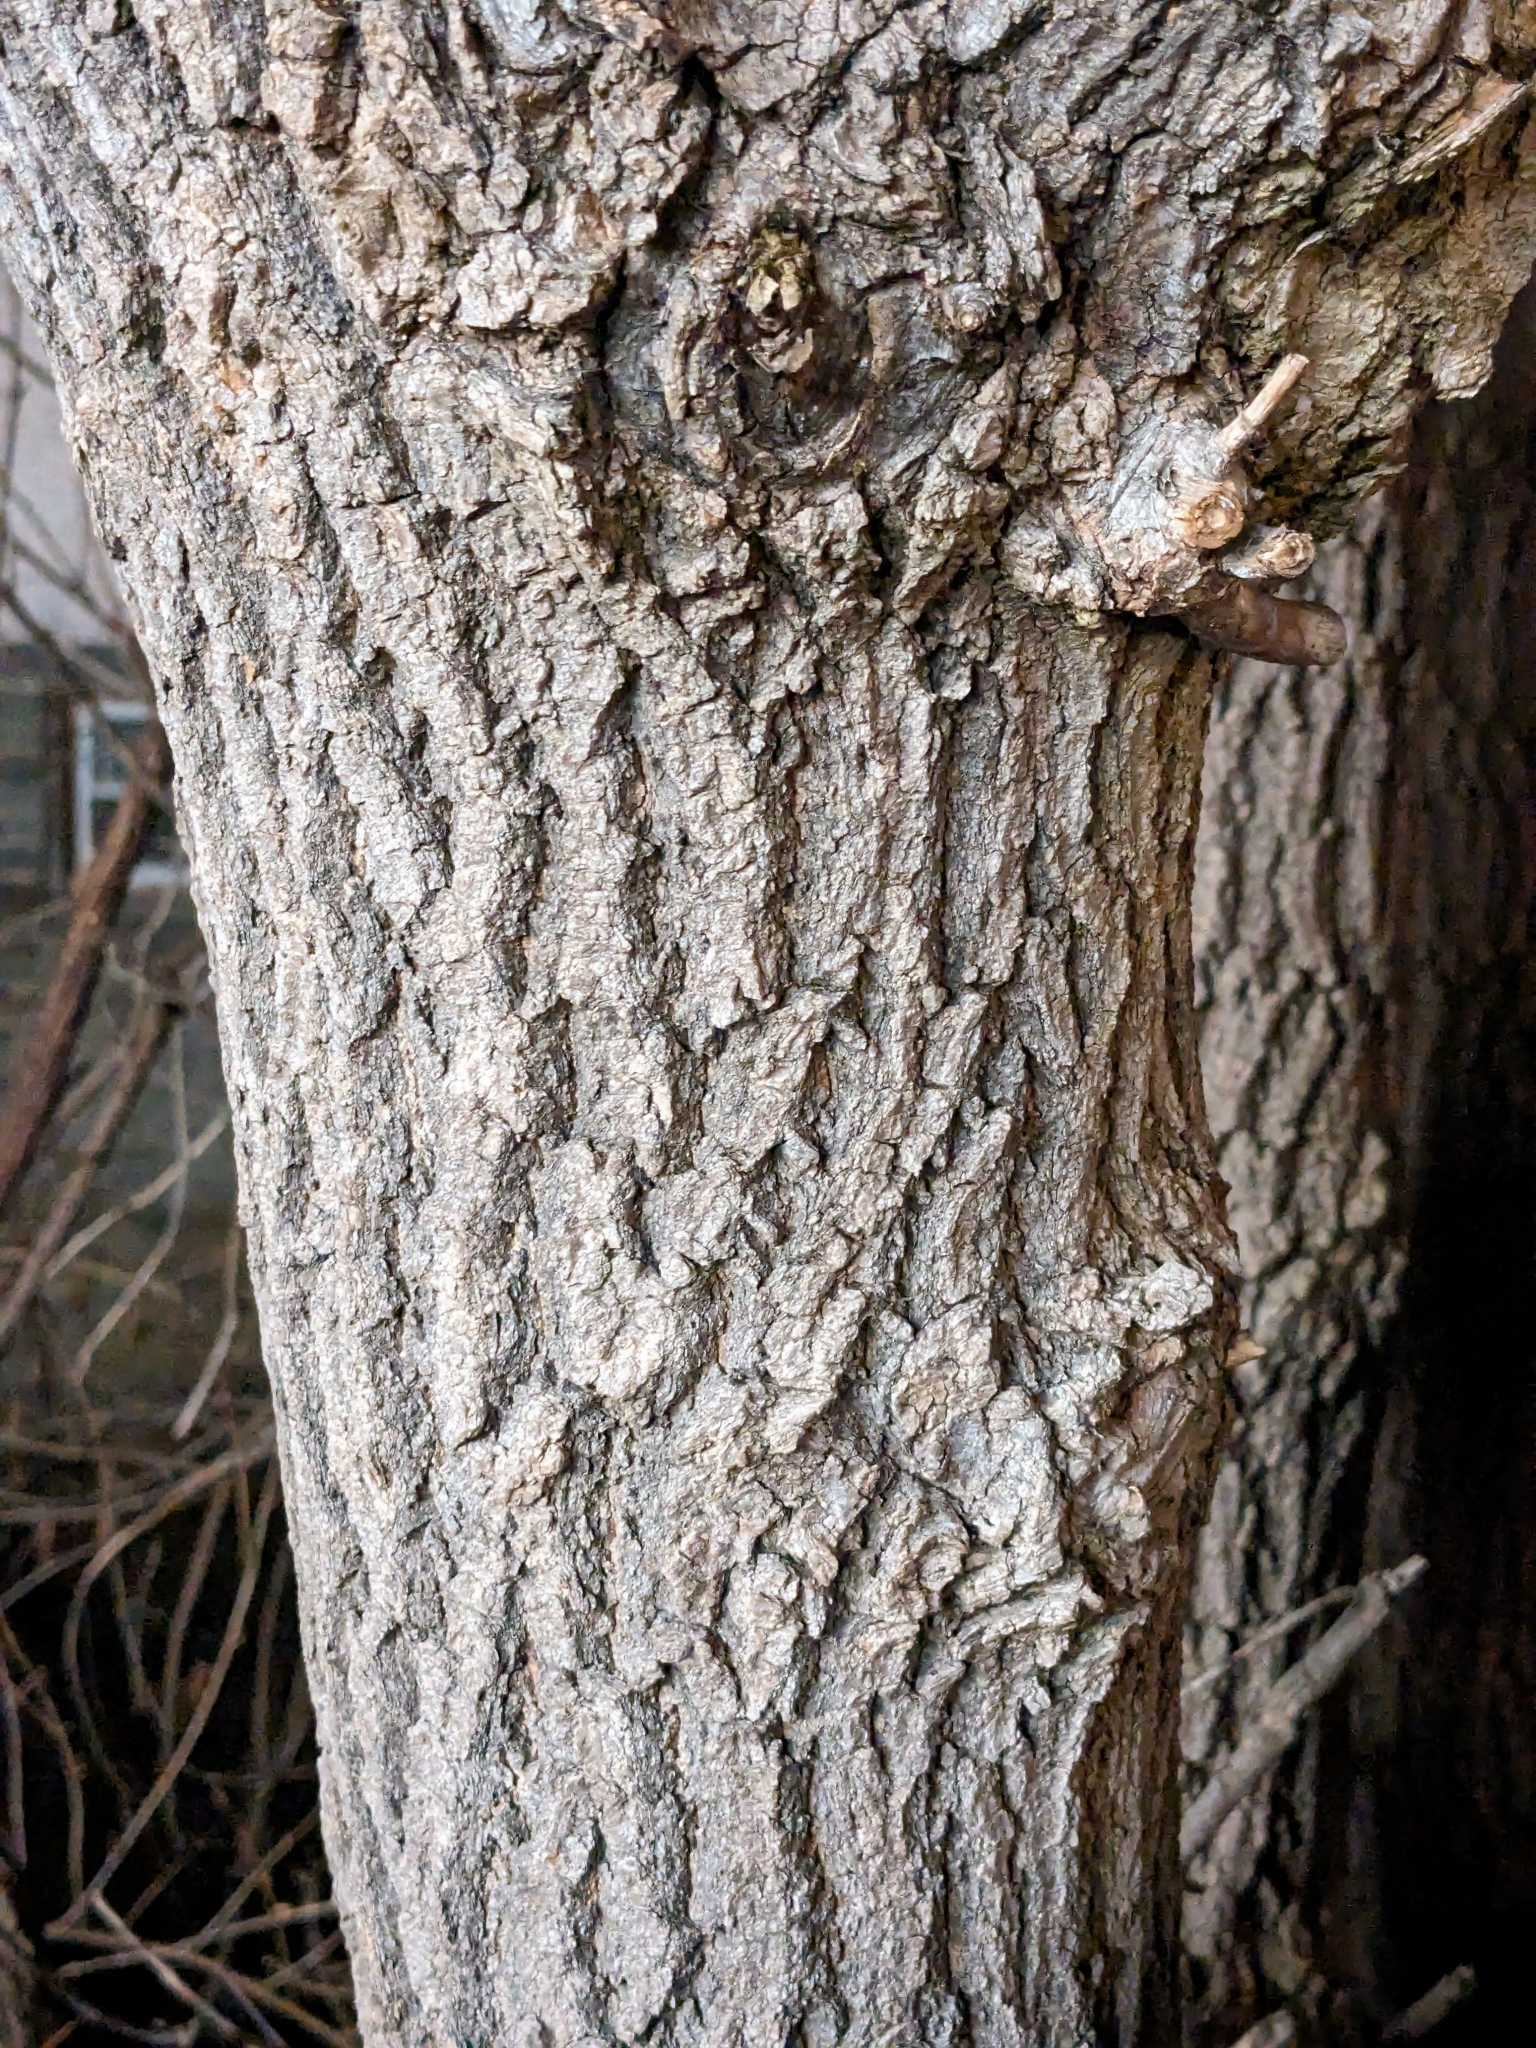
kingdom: Plantae
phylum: Tracheophyta
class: Magnoliopsida
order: Sapindales
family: Sapindaceae
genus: Acer
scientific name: Acer negundo
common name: Ashleaf maple
